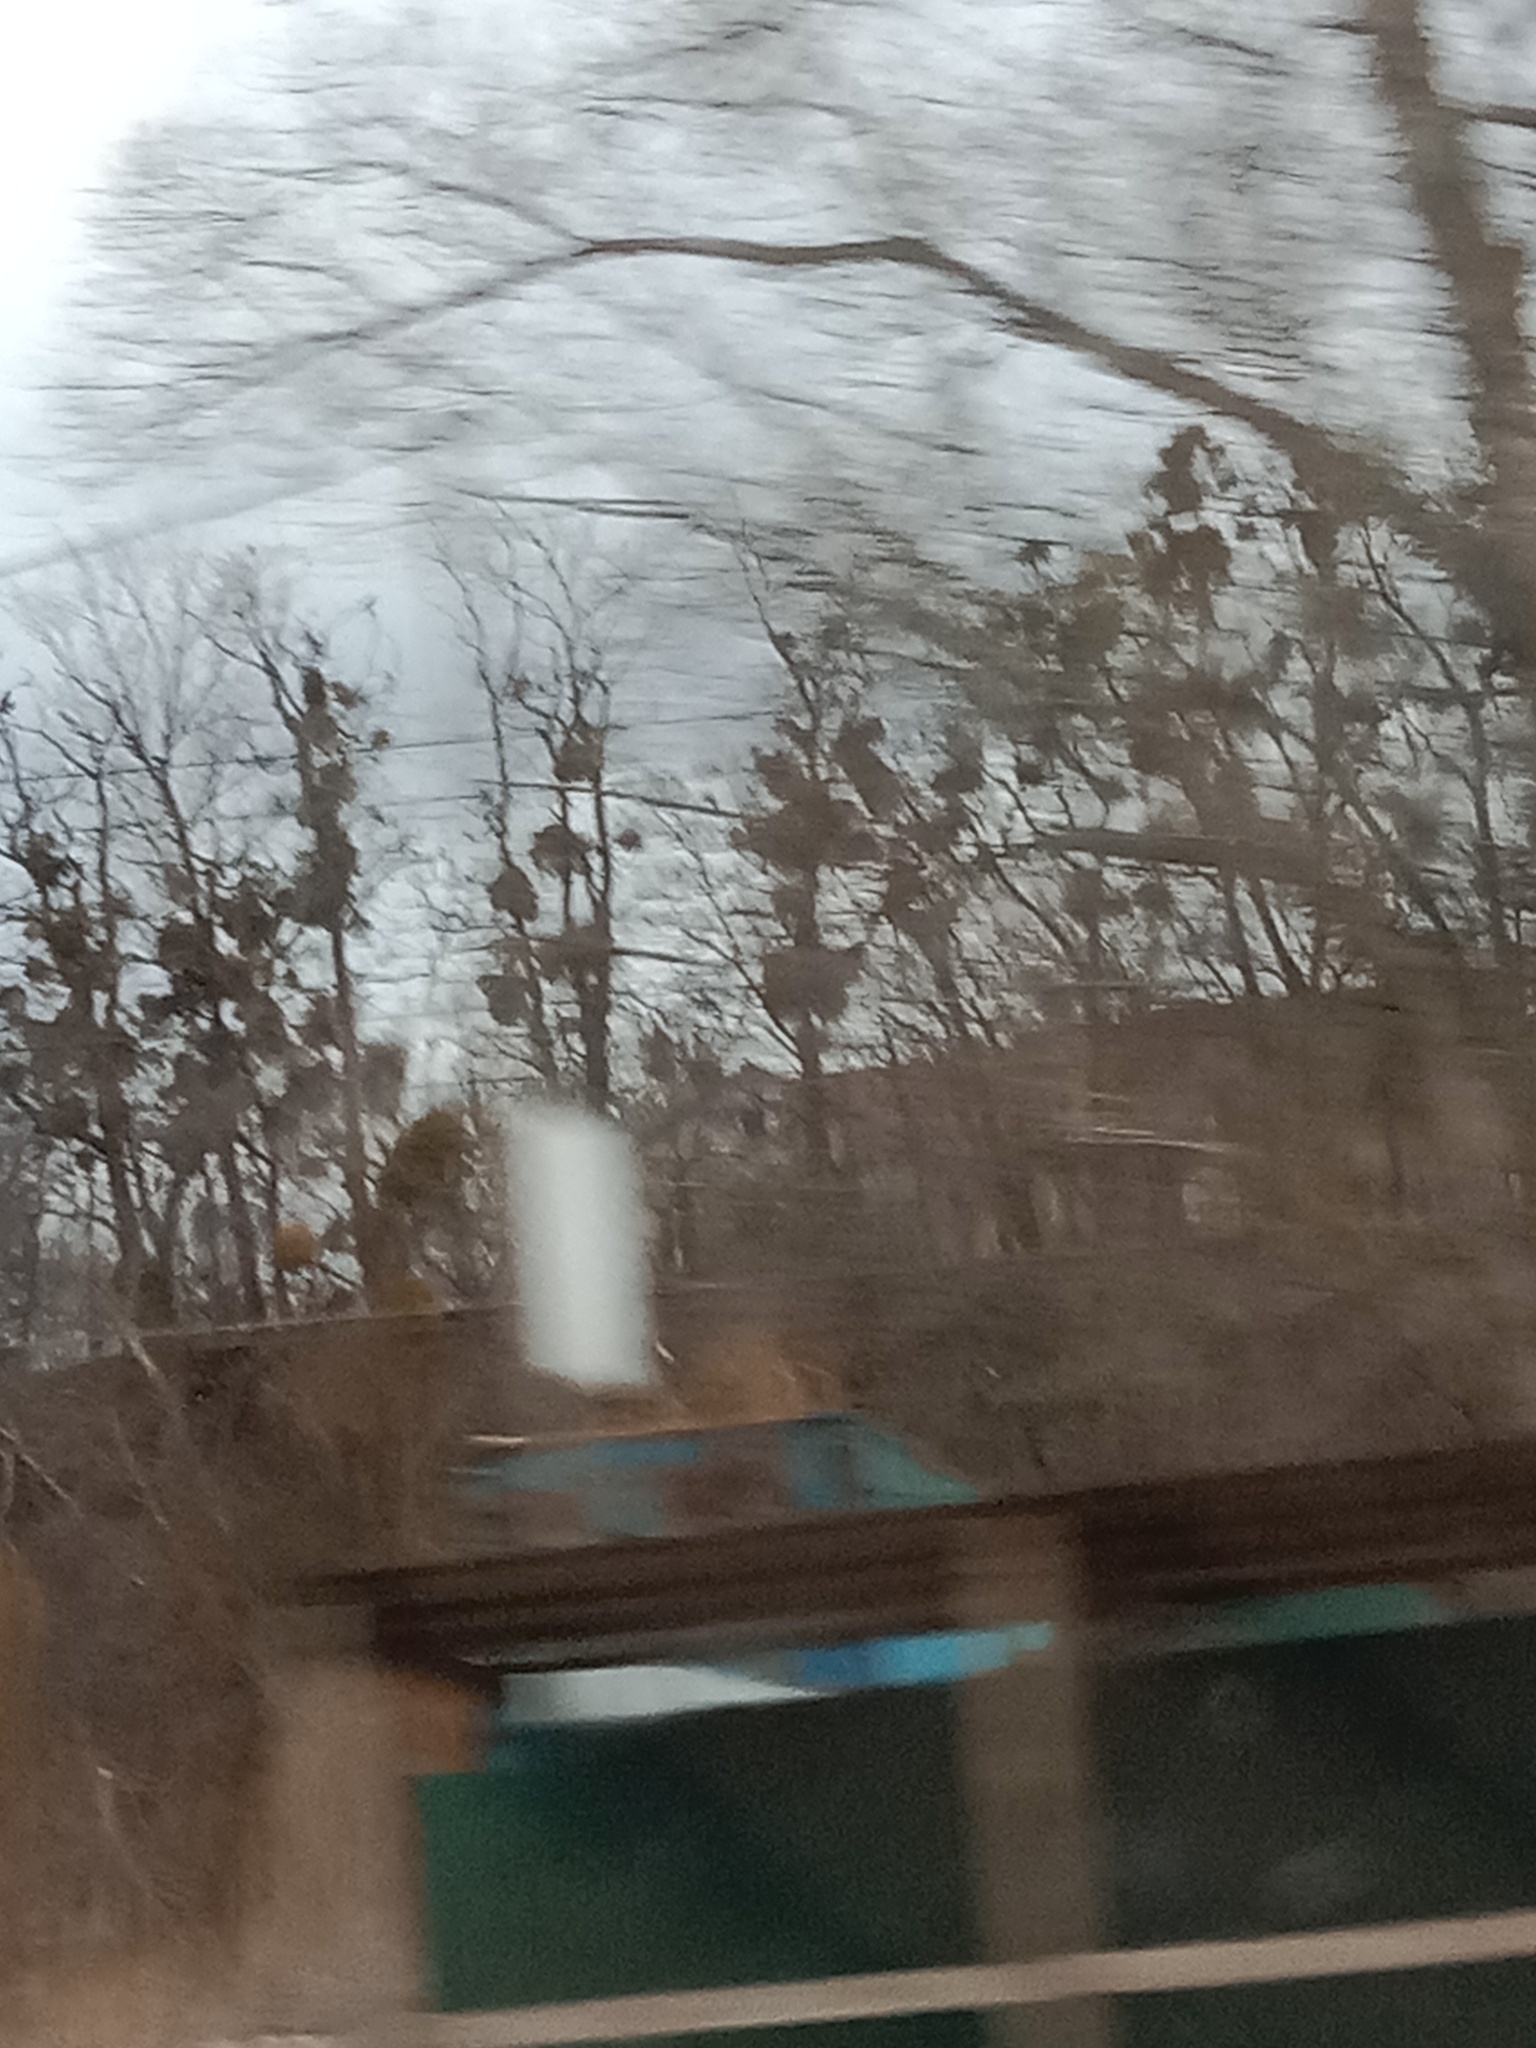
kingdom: Plantae
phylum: Tracheophyta
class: Magnoliopsida
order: Santalales
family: Viscaceae
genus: Viscum
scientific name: Viscum album
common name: Mistletoe
